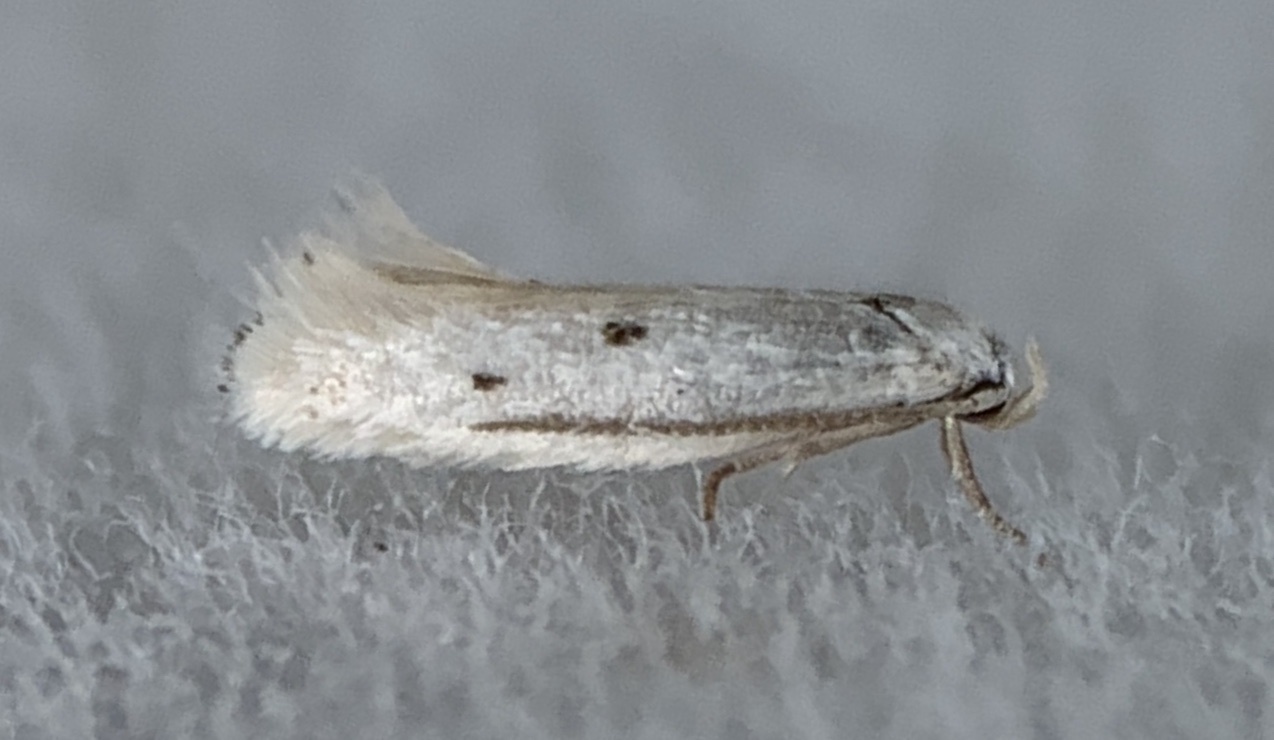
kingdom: Animalia
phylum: Arthropoda
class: Insecta
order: Lepidoptera
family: Elachistidae
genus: Elachista
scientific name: Elachista orestella
